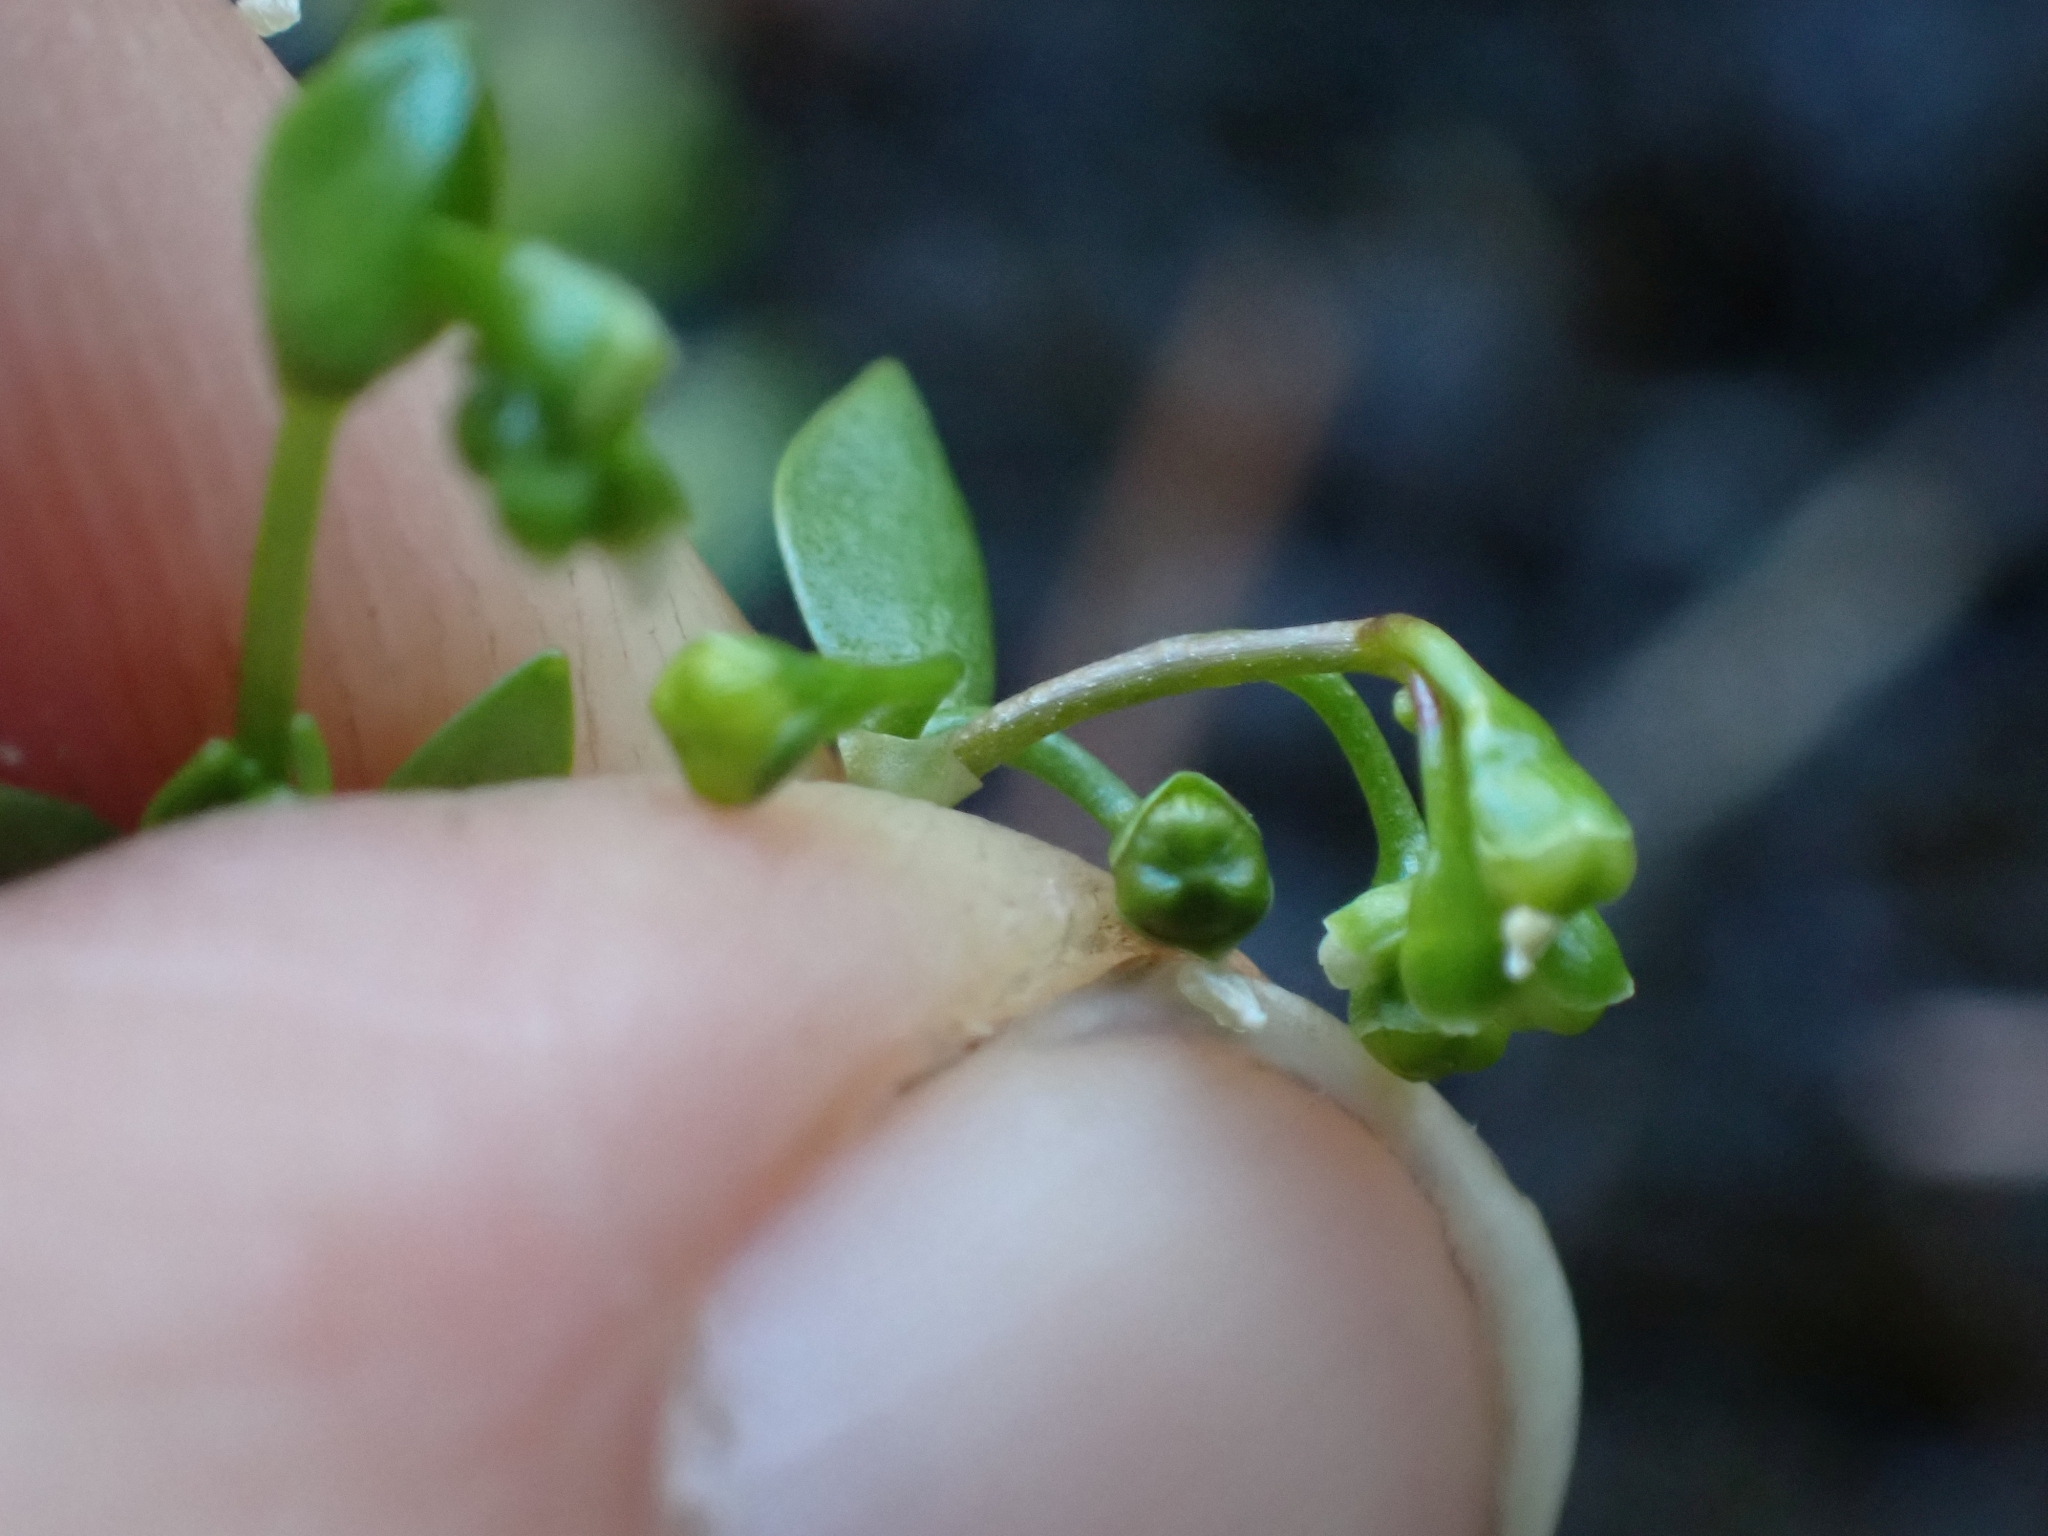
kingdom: Plantae
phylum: Tracheophyta
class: Magnoliopsida
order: Caryophyllales
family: Montiaceae
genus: Montia
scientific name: Montia fontana
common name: Blinks
